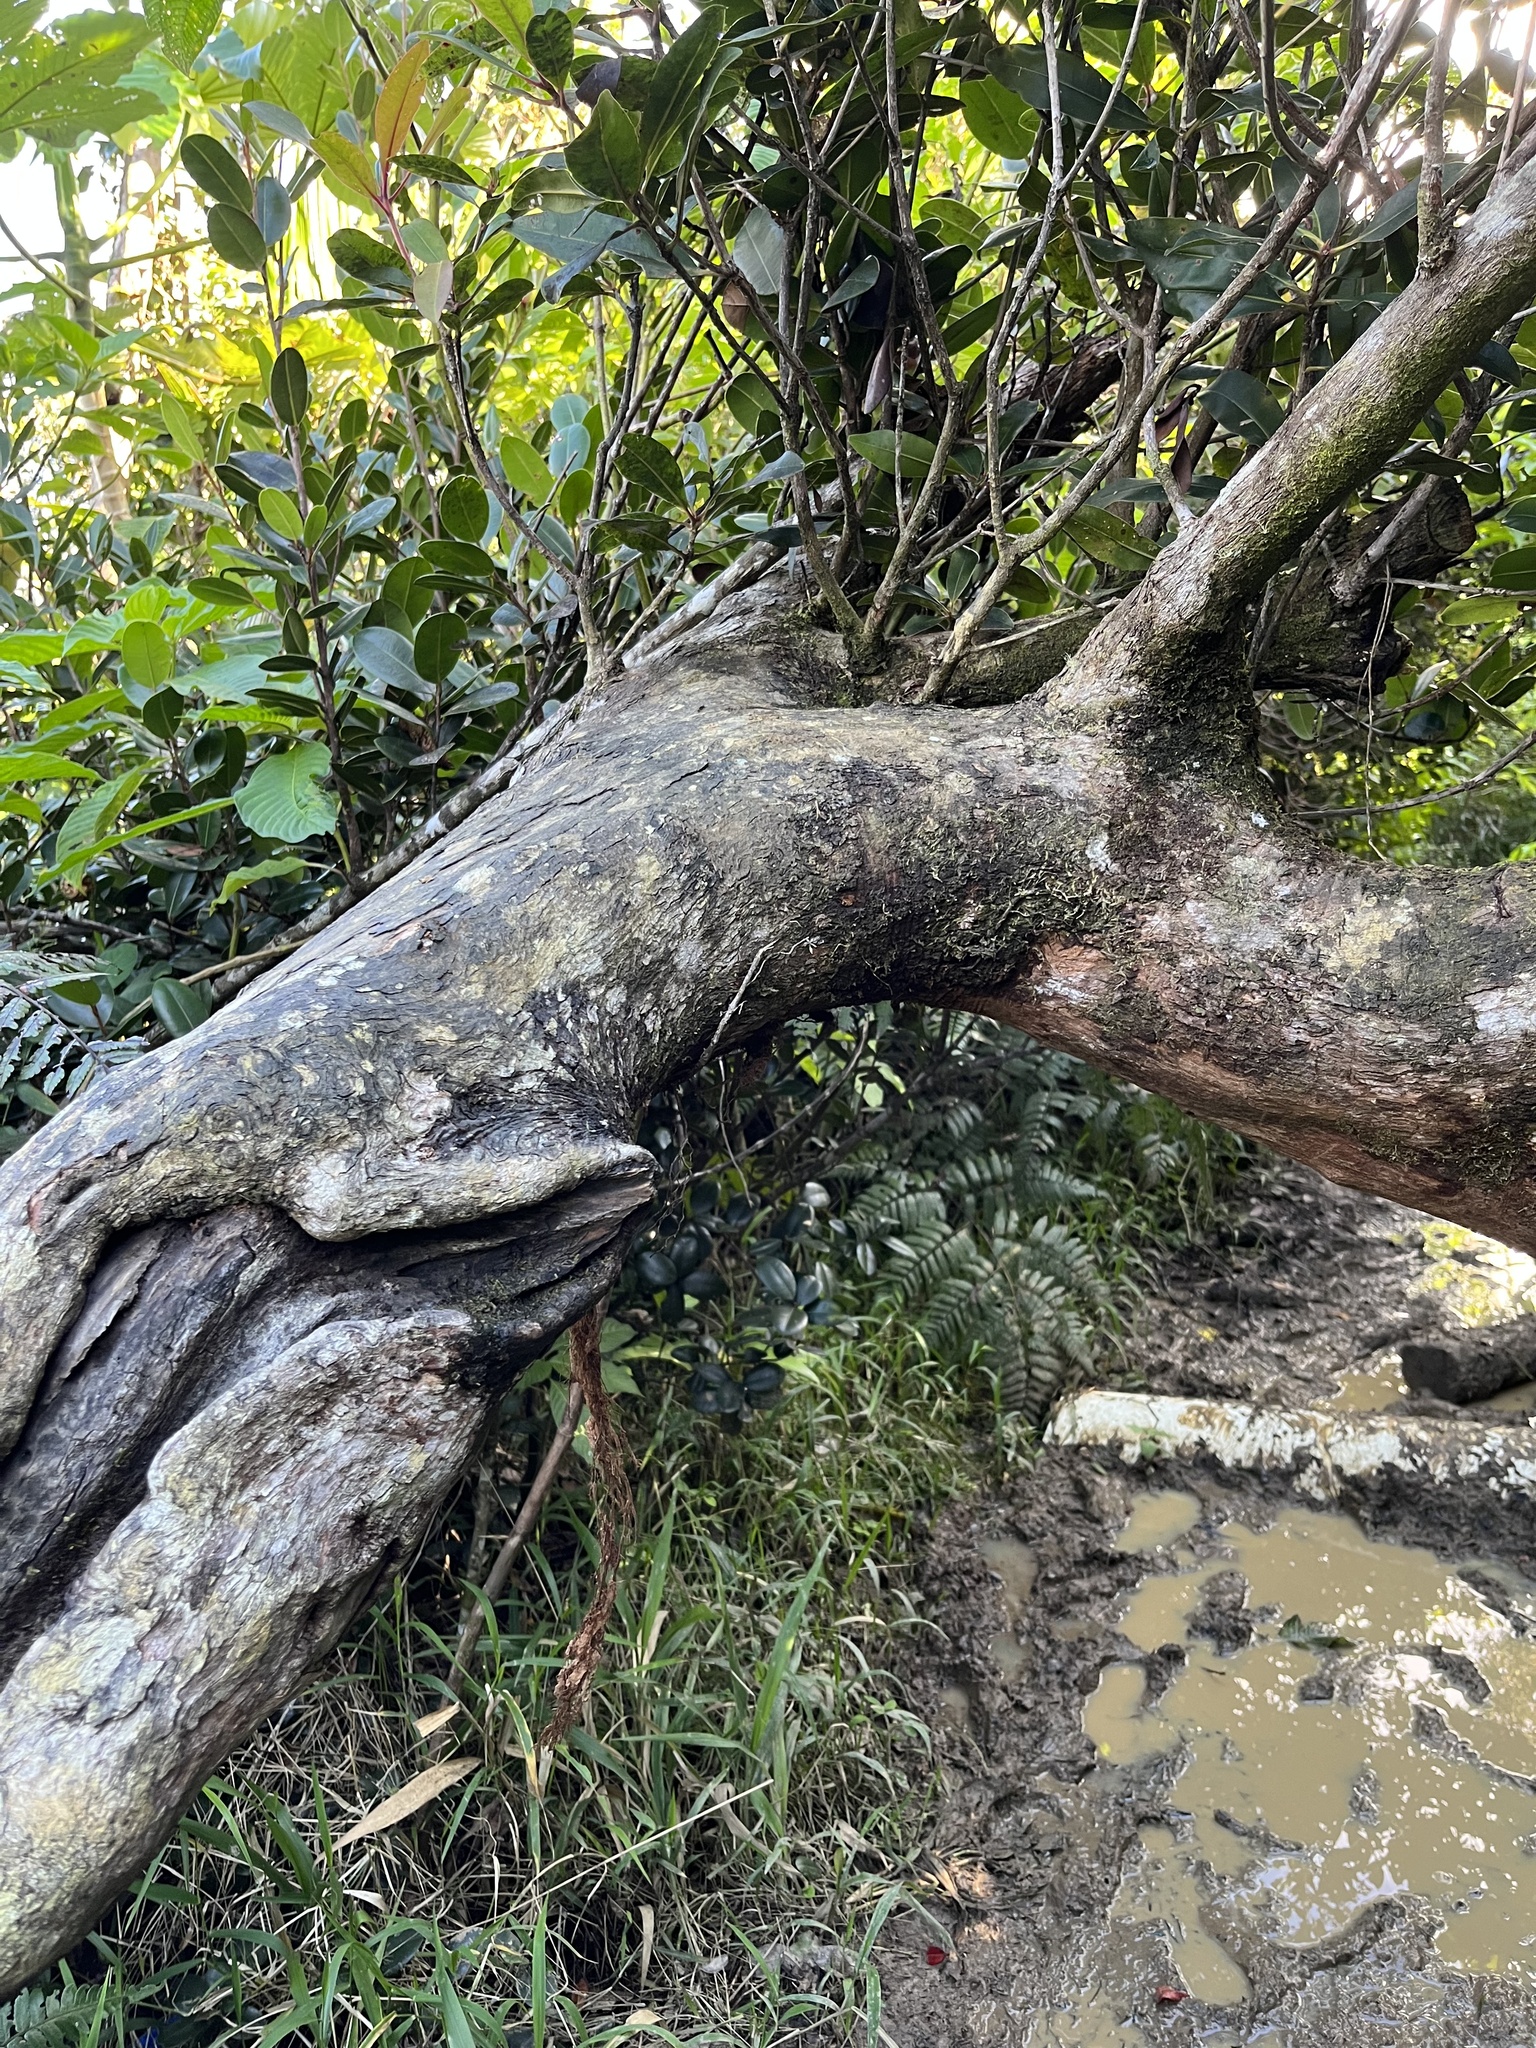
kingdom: Plantae
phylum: Tracheophyta
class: Magnoliopsida
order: Ericales
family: Cyrillaceae
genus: Cyrilla
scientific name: Cyrilla racemiflora
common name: Black titi
